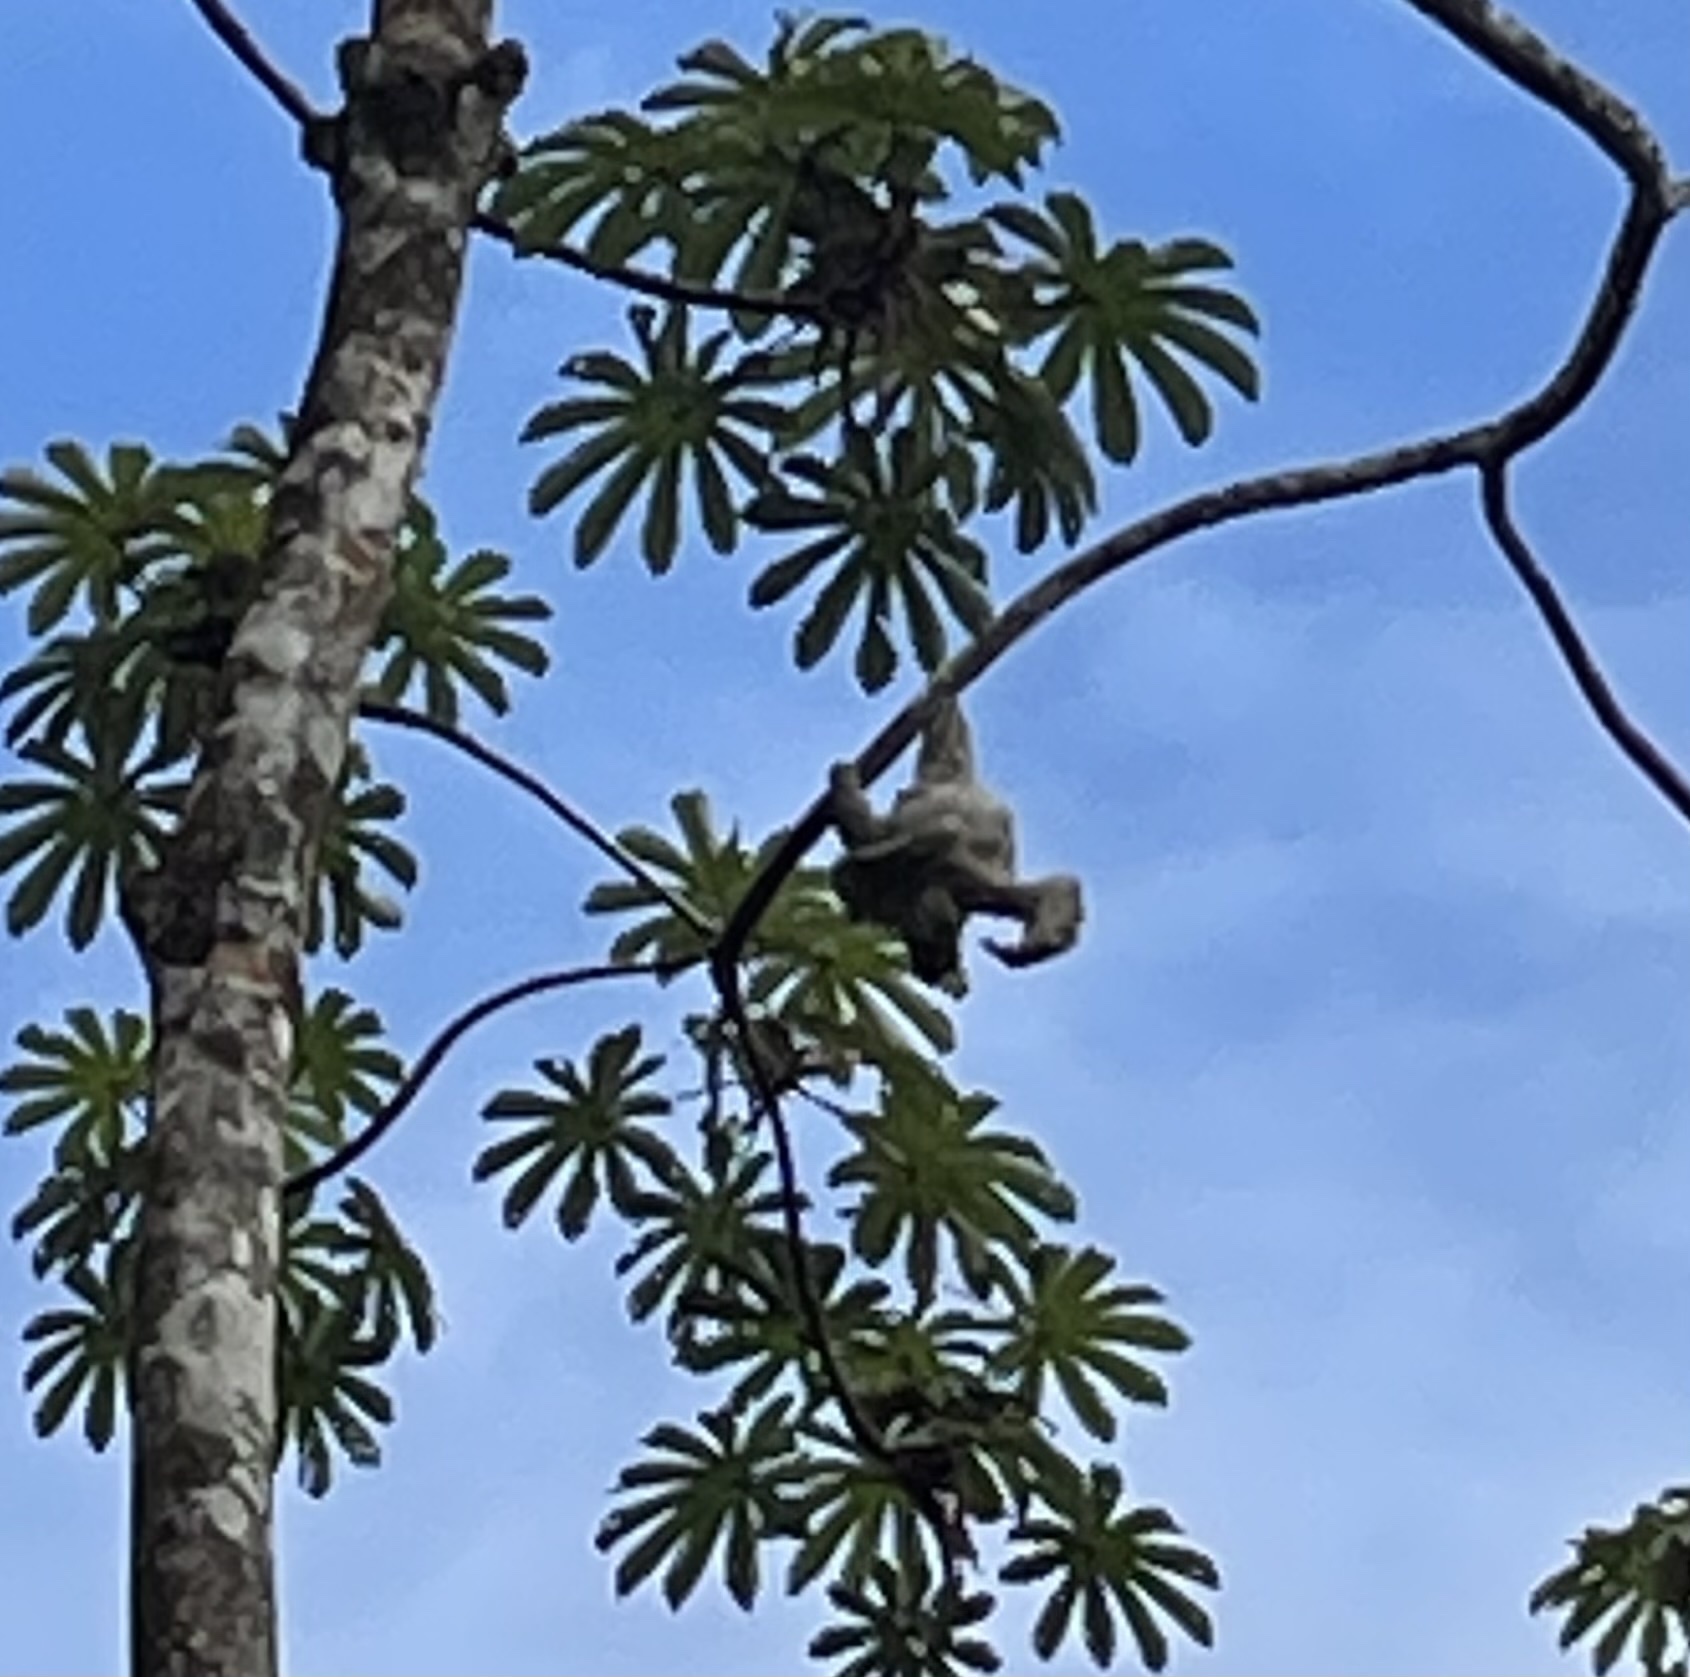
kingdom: Animalia
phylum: Chordata
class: Mammalia
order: Pilosa
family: Bradypodidae
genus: Bradypus
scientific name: Bradypus variegatus
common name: Brown-throated three-toed sloth
